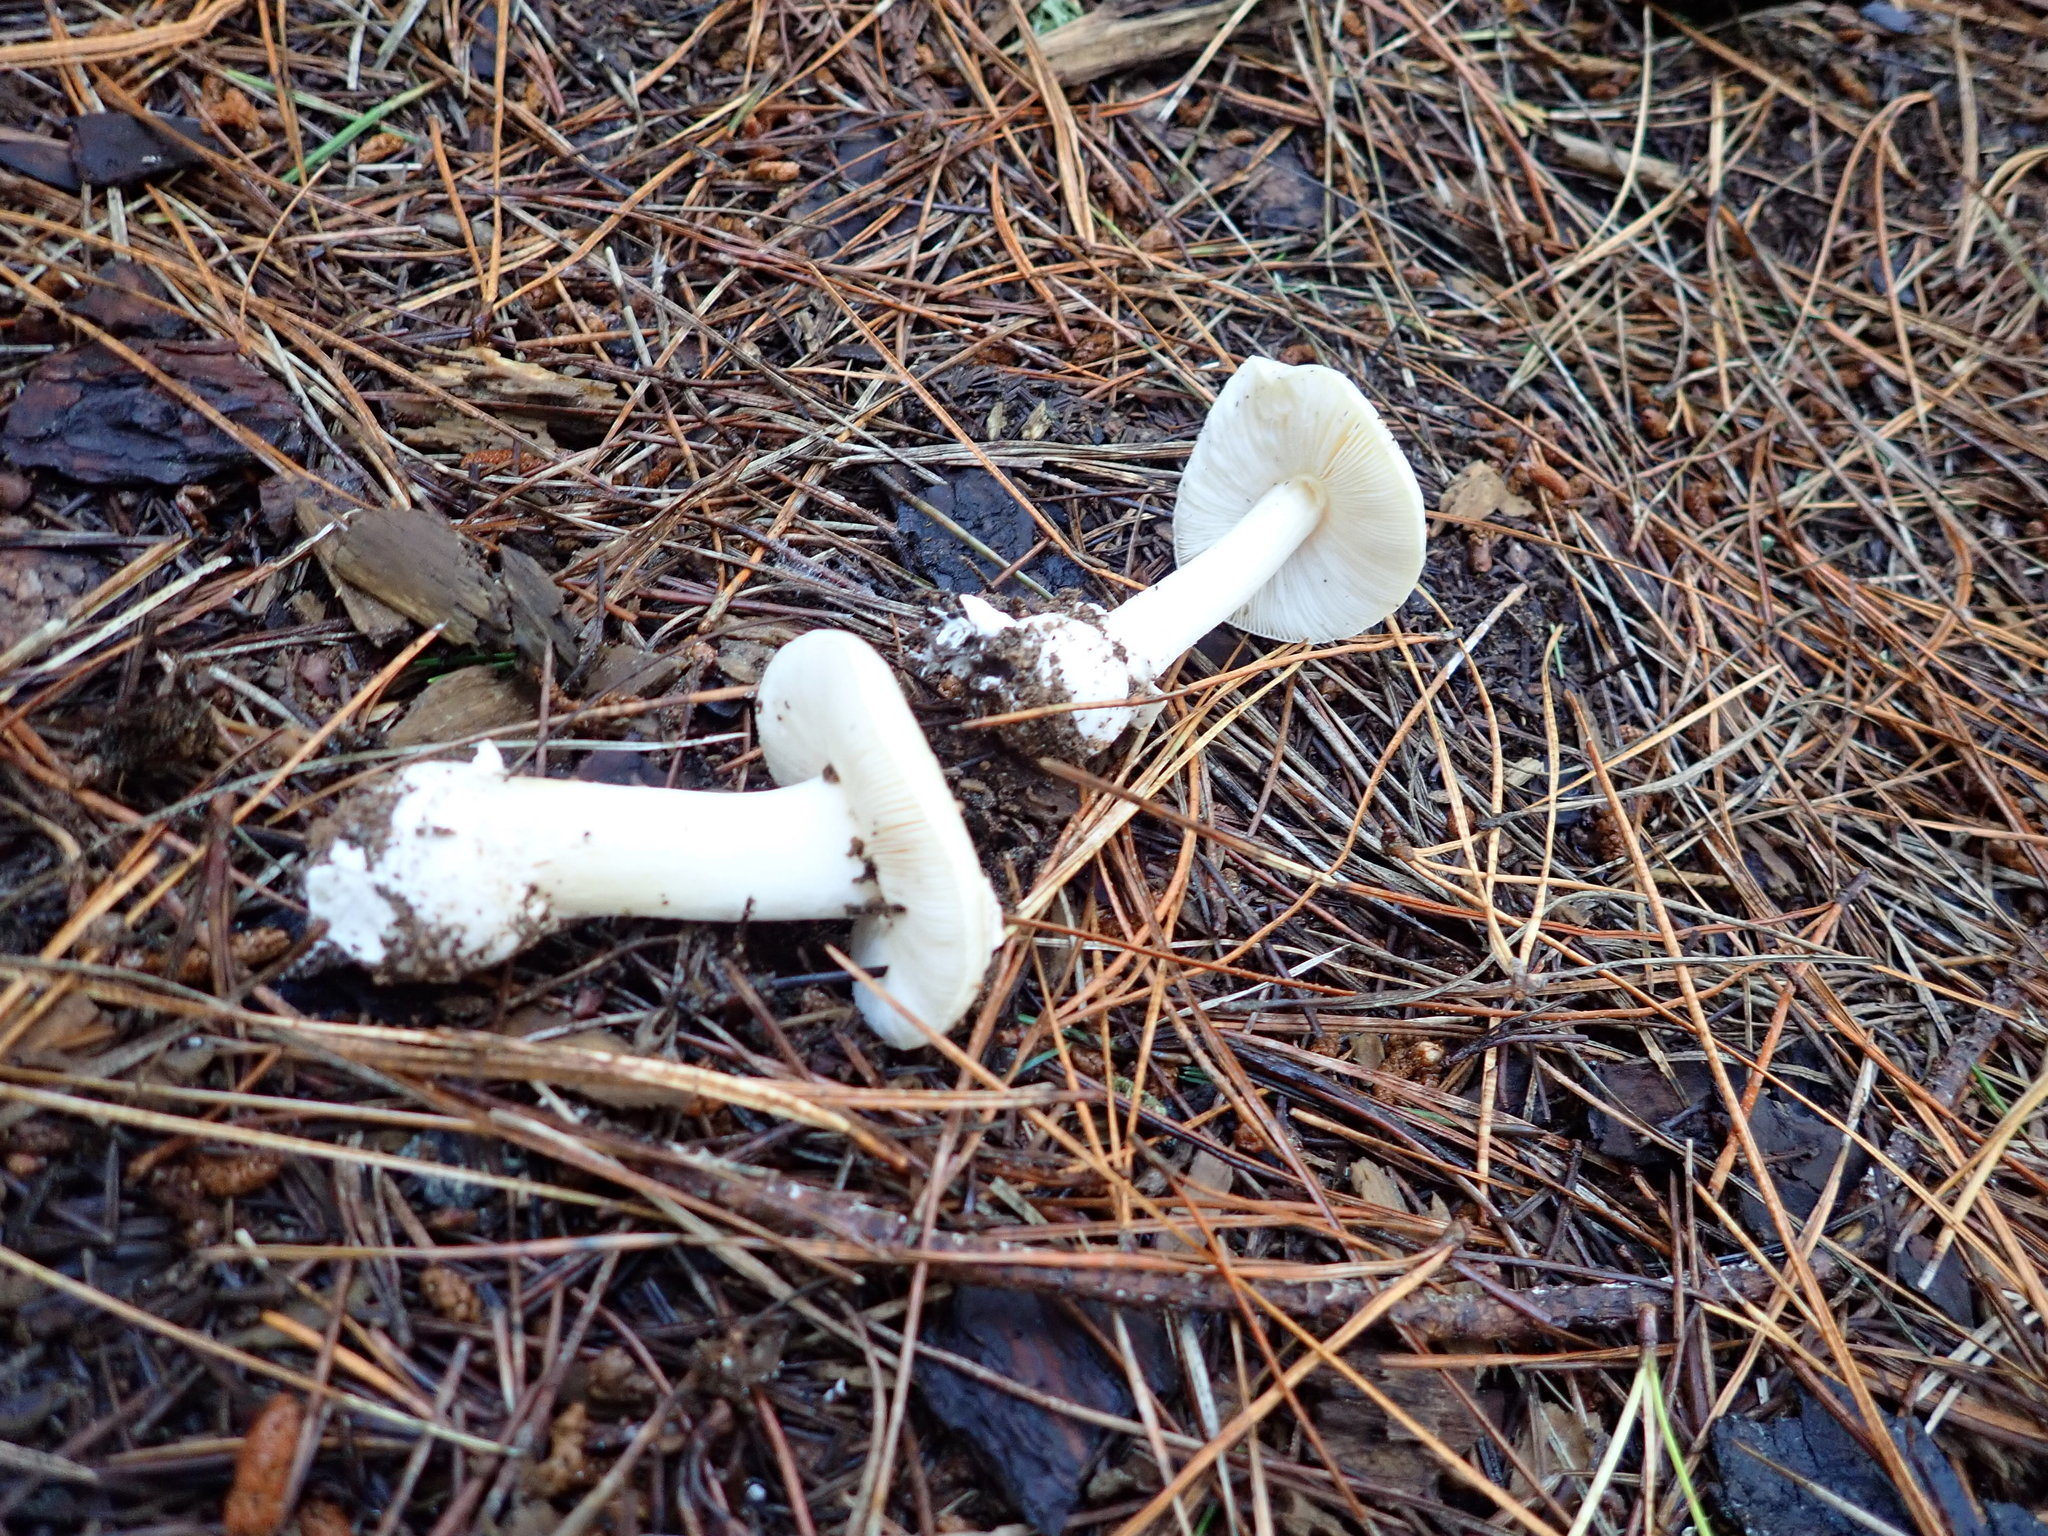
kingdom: Fungi
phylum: Basidiomycota
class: Agaricomycetes
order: Agaricales
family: Amanitaceae
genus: Amanita
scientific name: Amanita gemmata
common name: Jewelled amanita
